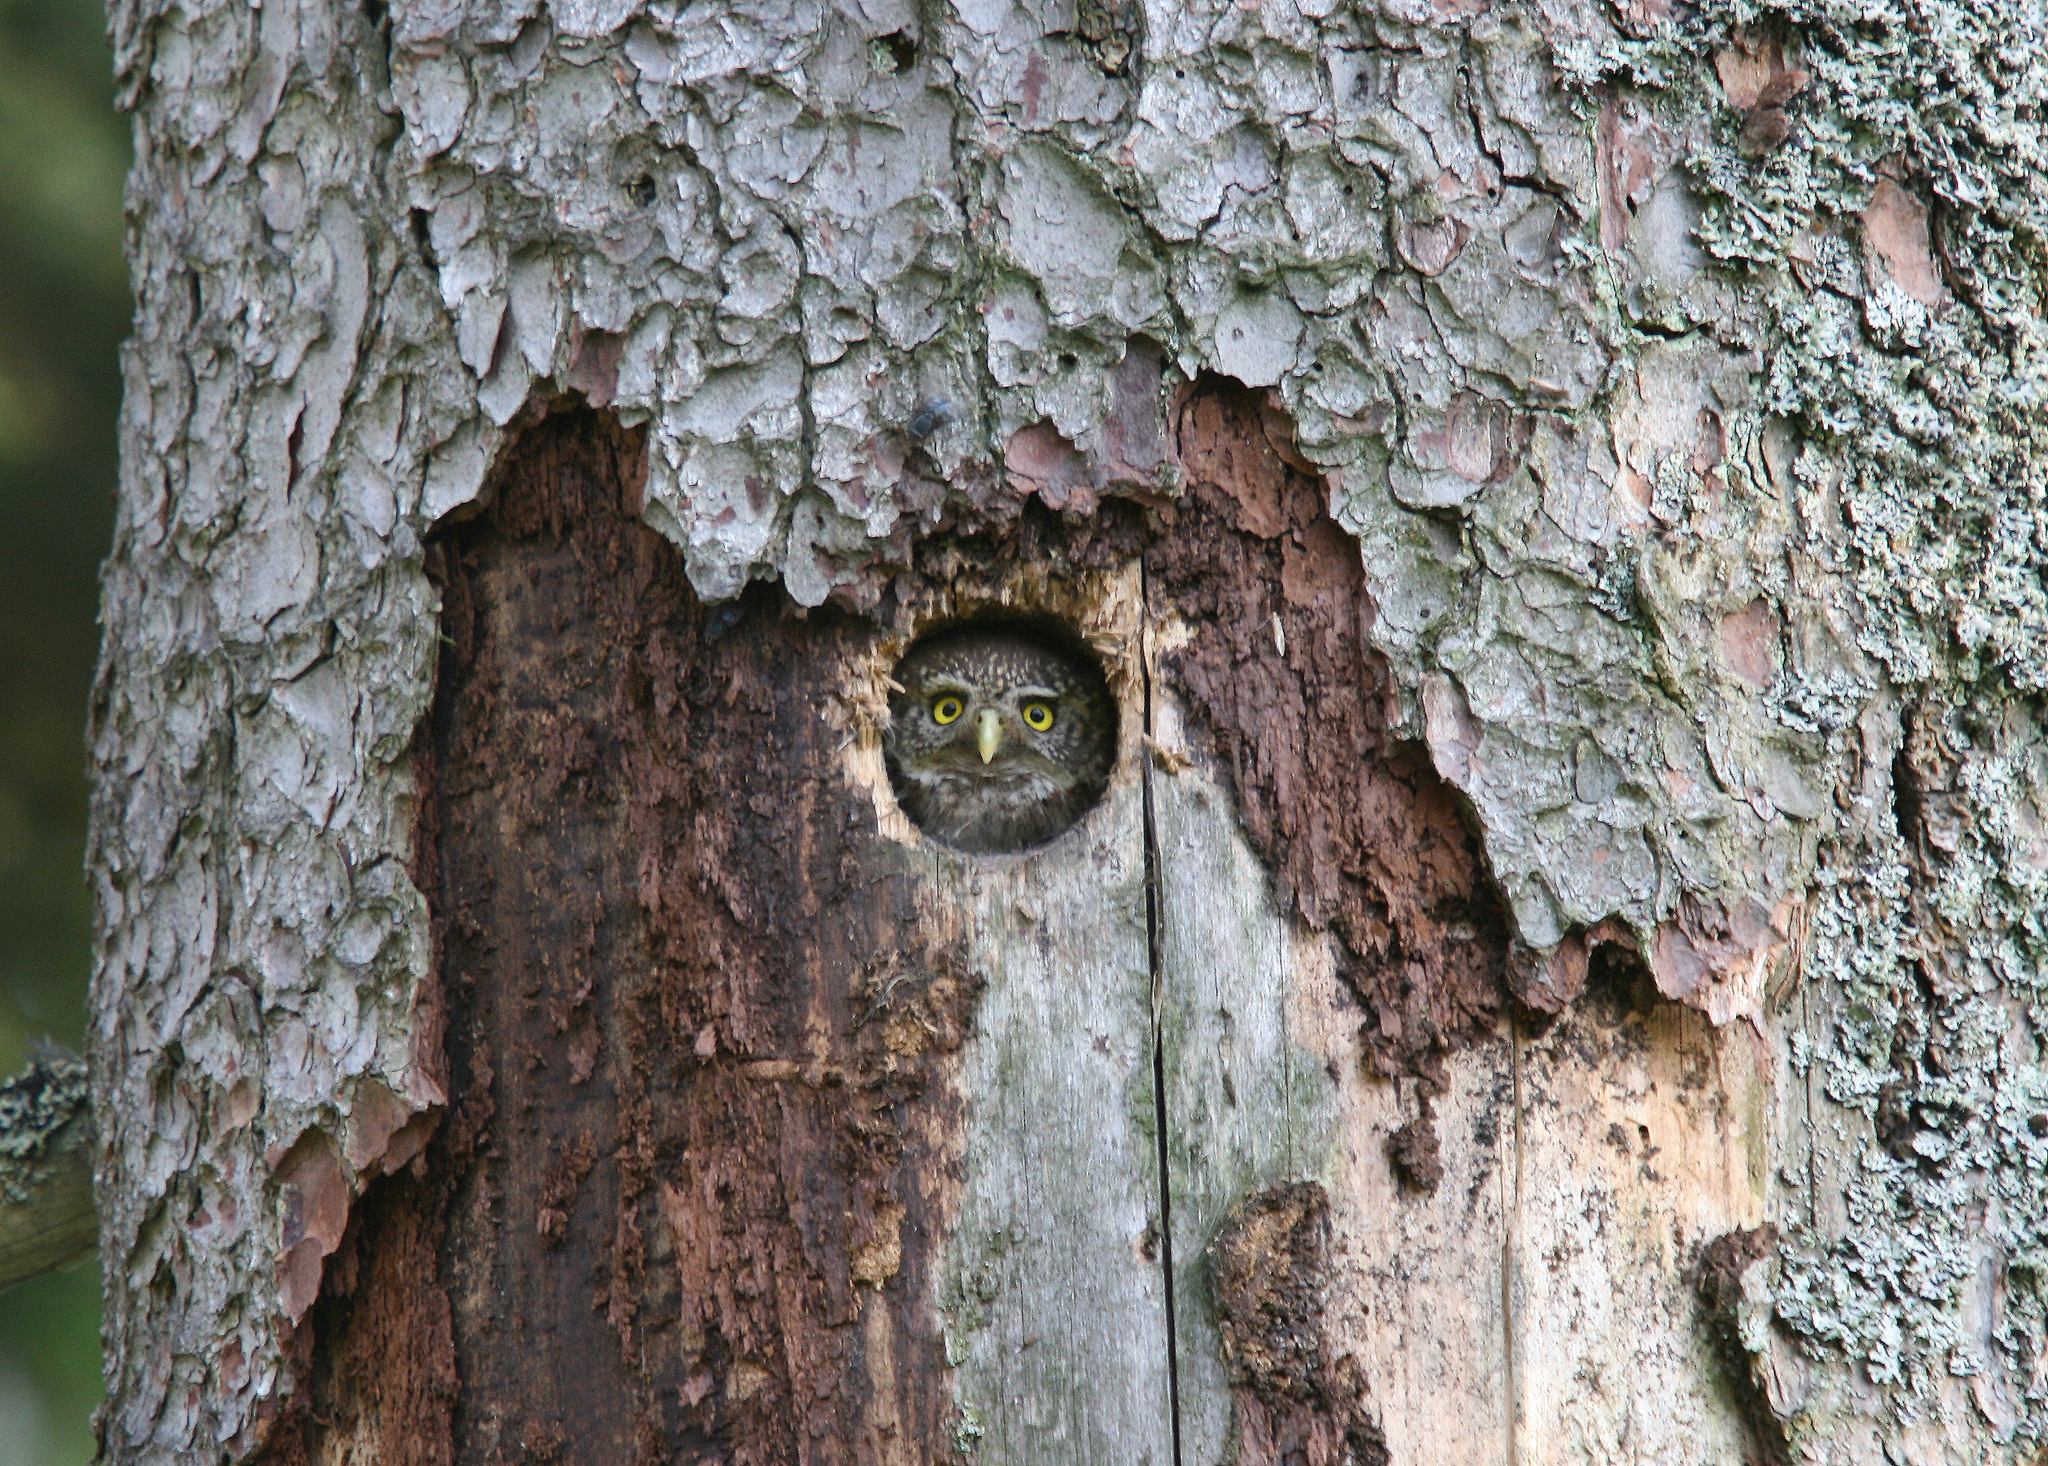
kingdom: Animalia
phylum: Chordata
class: Aves
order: Strigiformes
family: Strigidae
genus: Glaucidium
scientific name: Glaucidium passerinum
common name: Eurasian pygmy owl
